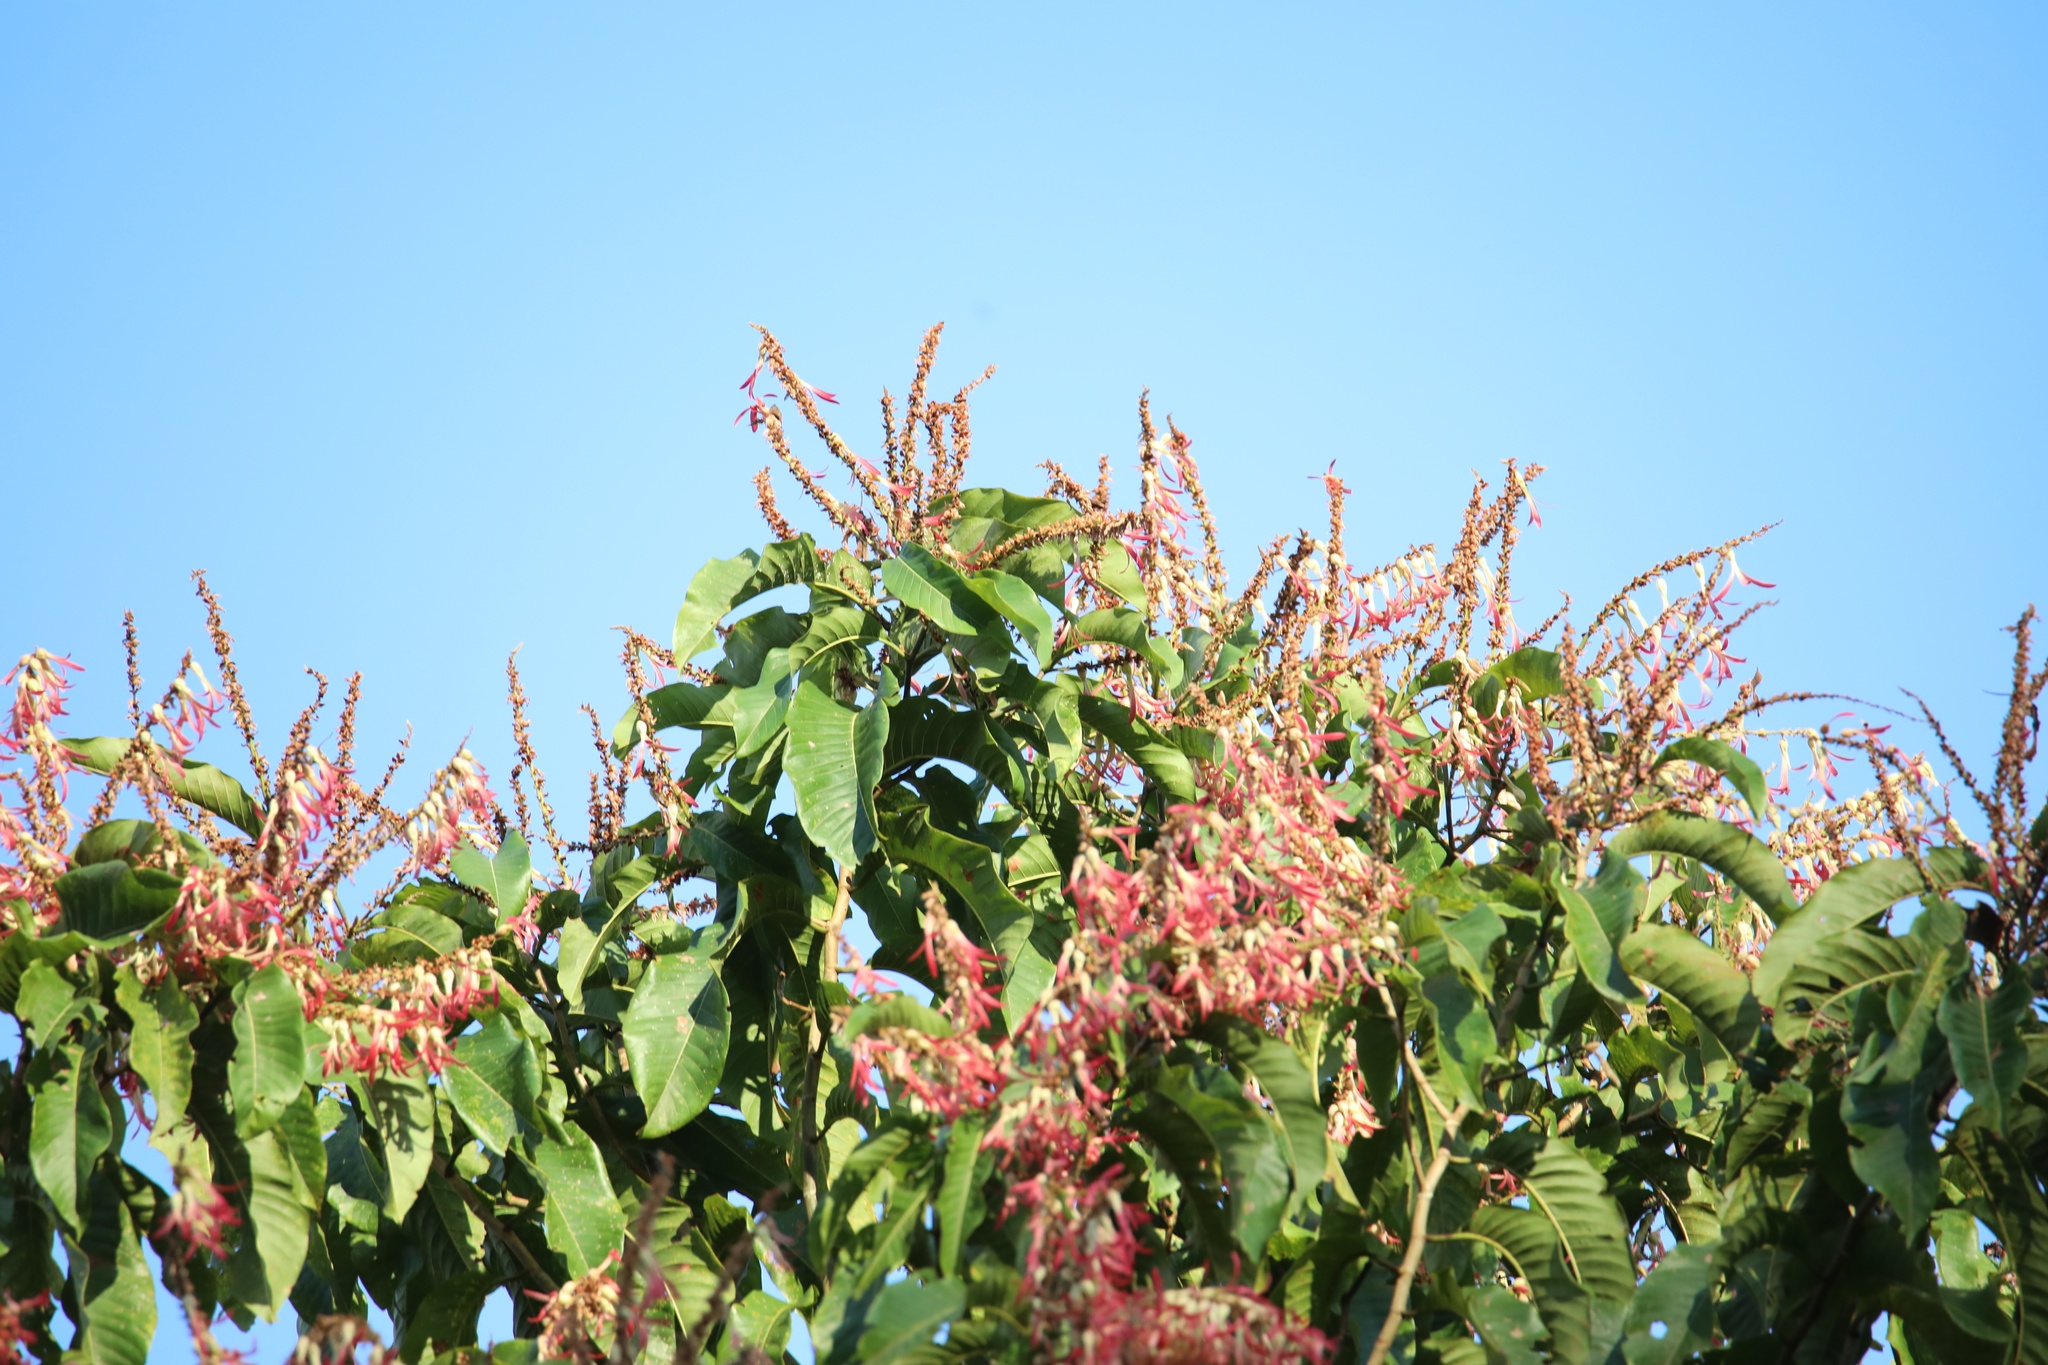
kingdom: Plantae
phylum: Tracheophyta
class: Magnoliopsida
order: Caryophyllales
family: Polygonaceae
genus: Triplaris
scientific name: Triplaris cumingiana
